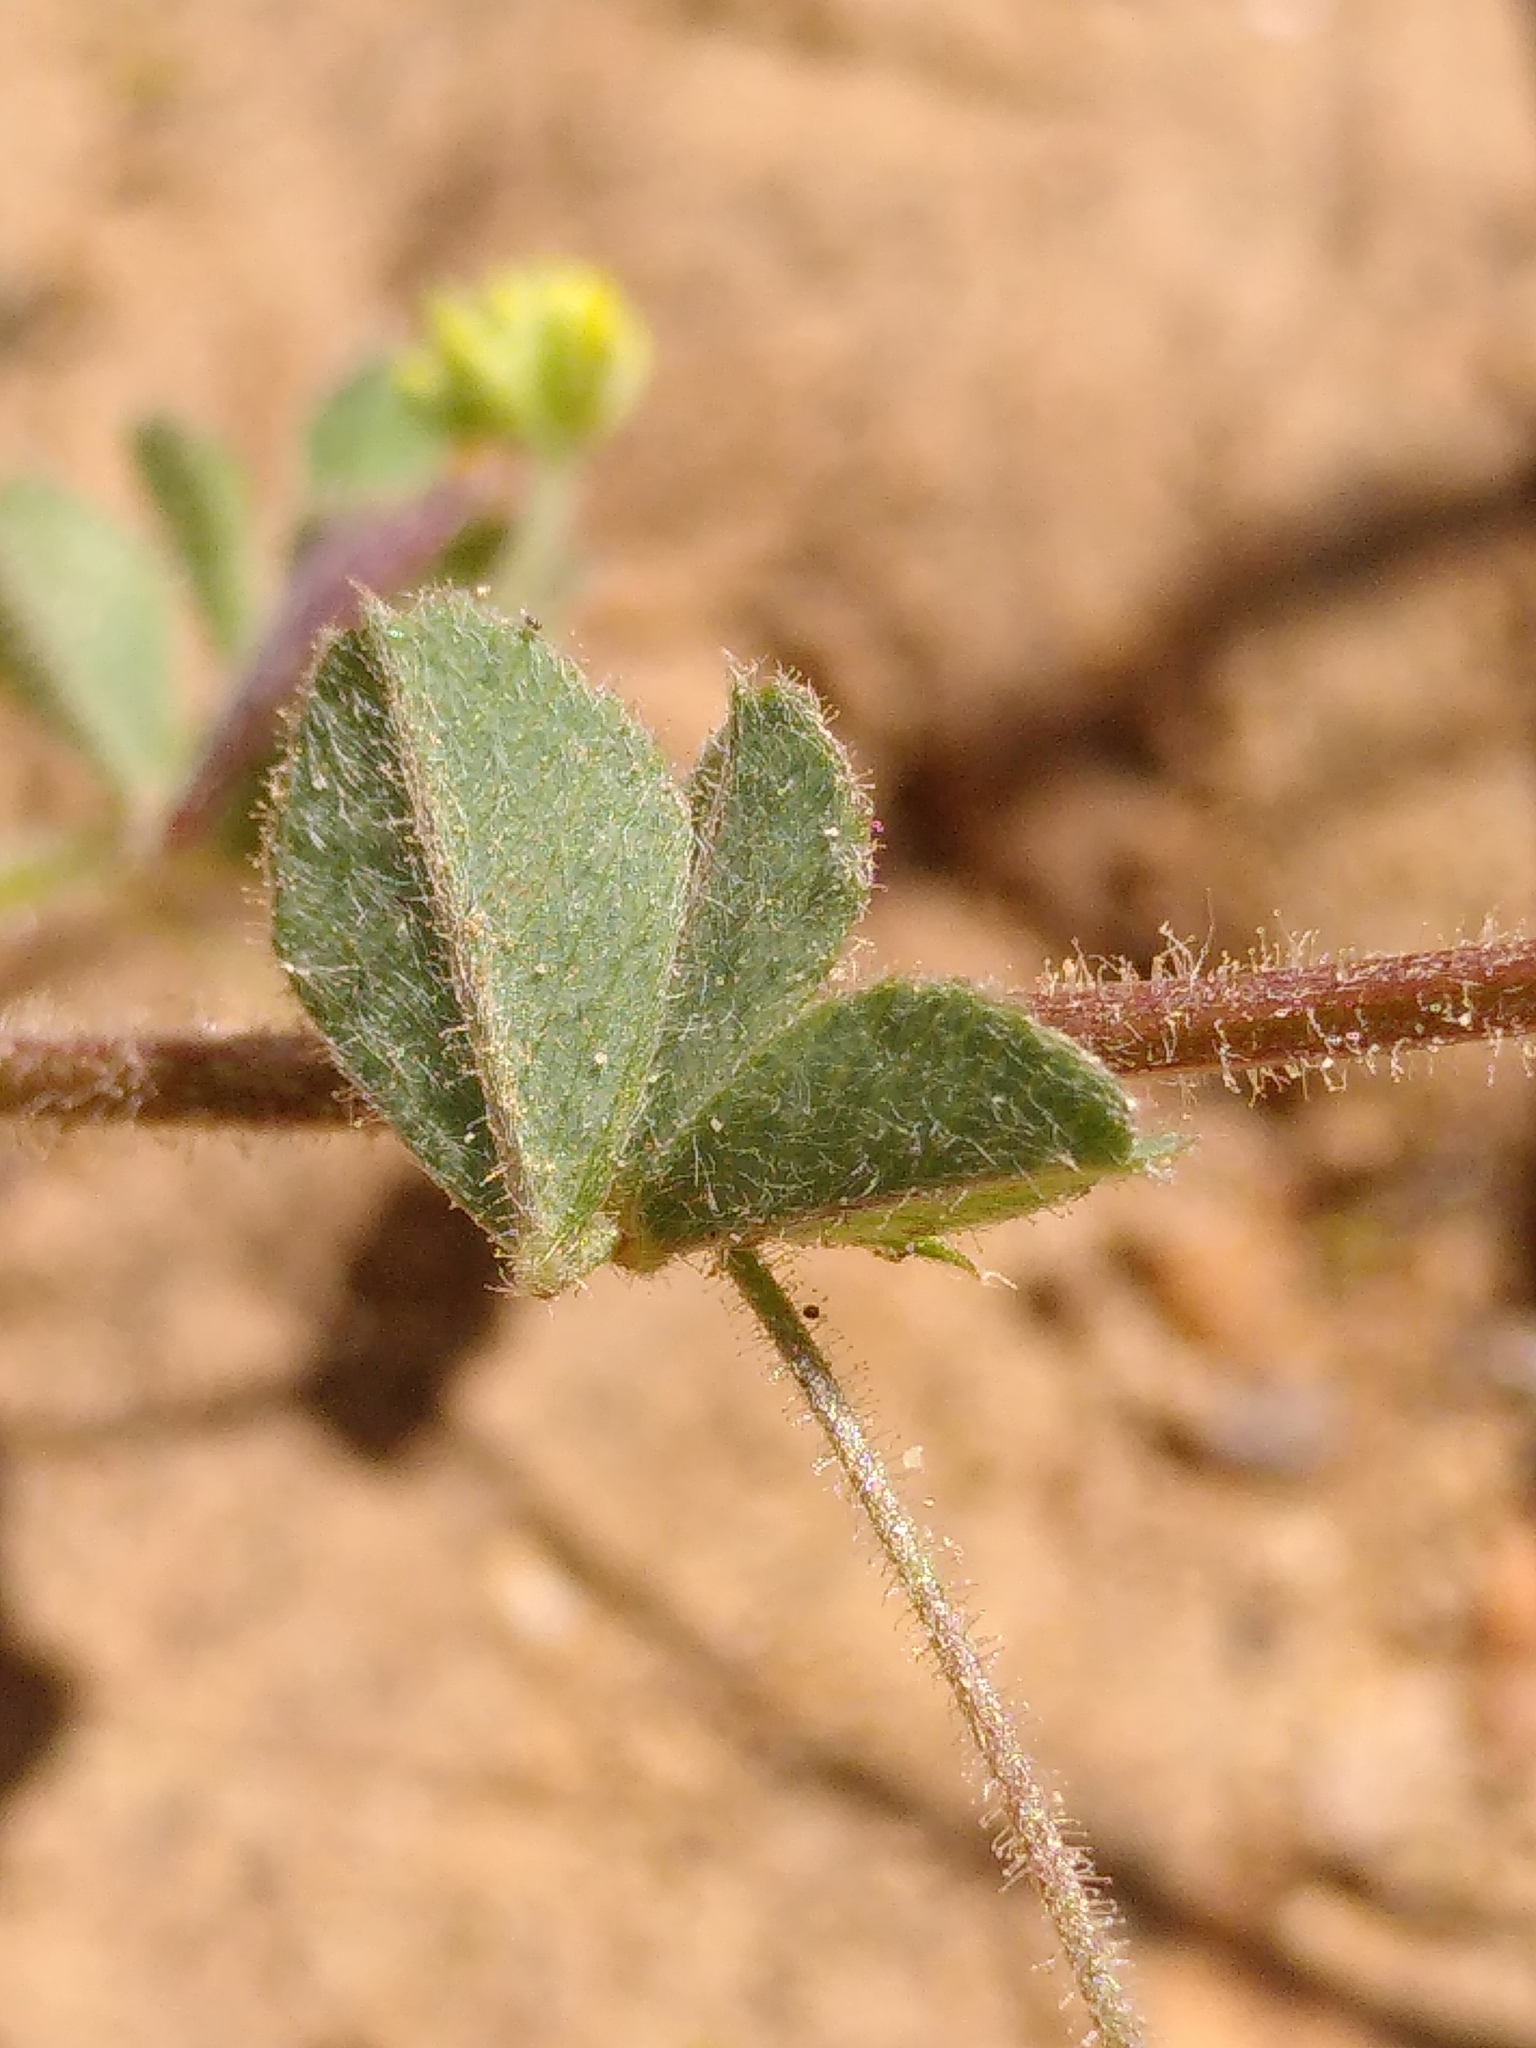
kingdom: Plantae
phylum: Tracheophyta
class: Magnoliopsida
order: Fabales
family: Fabaceae
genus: Medicago
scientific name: Medicago lupulina
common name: Black medick
